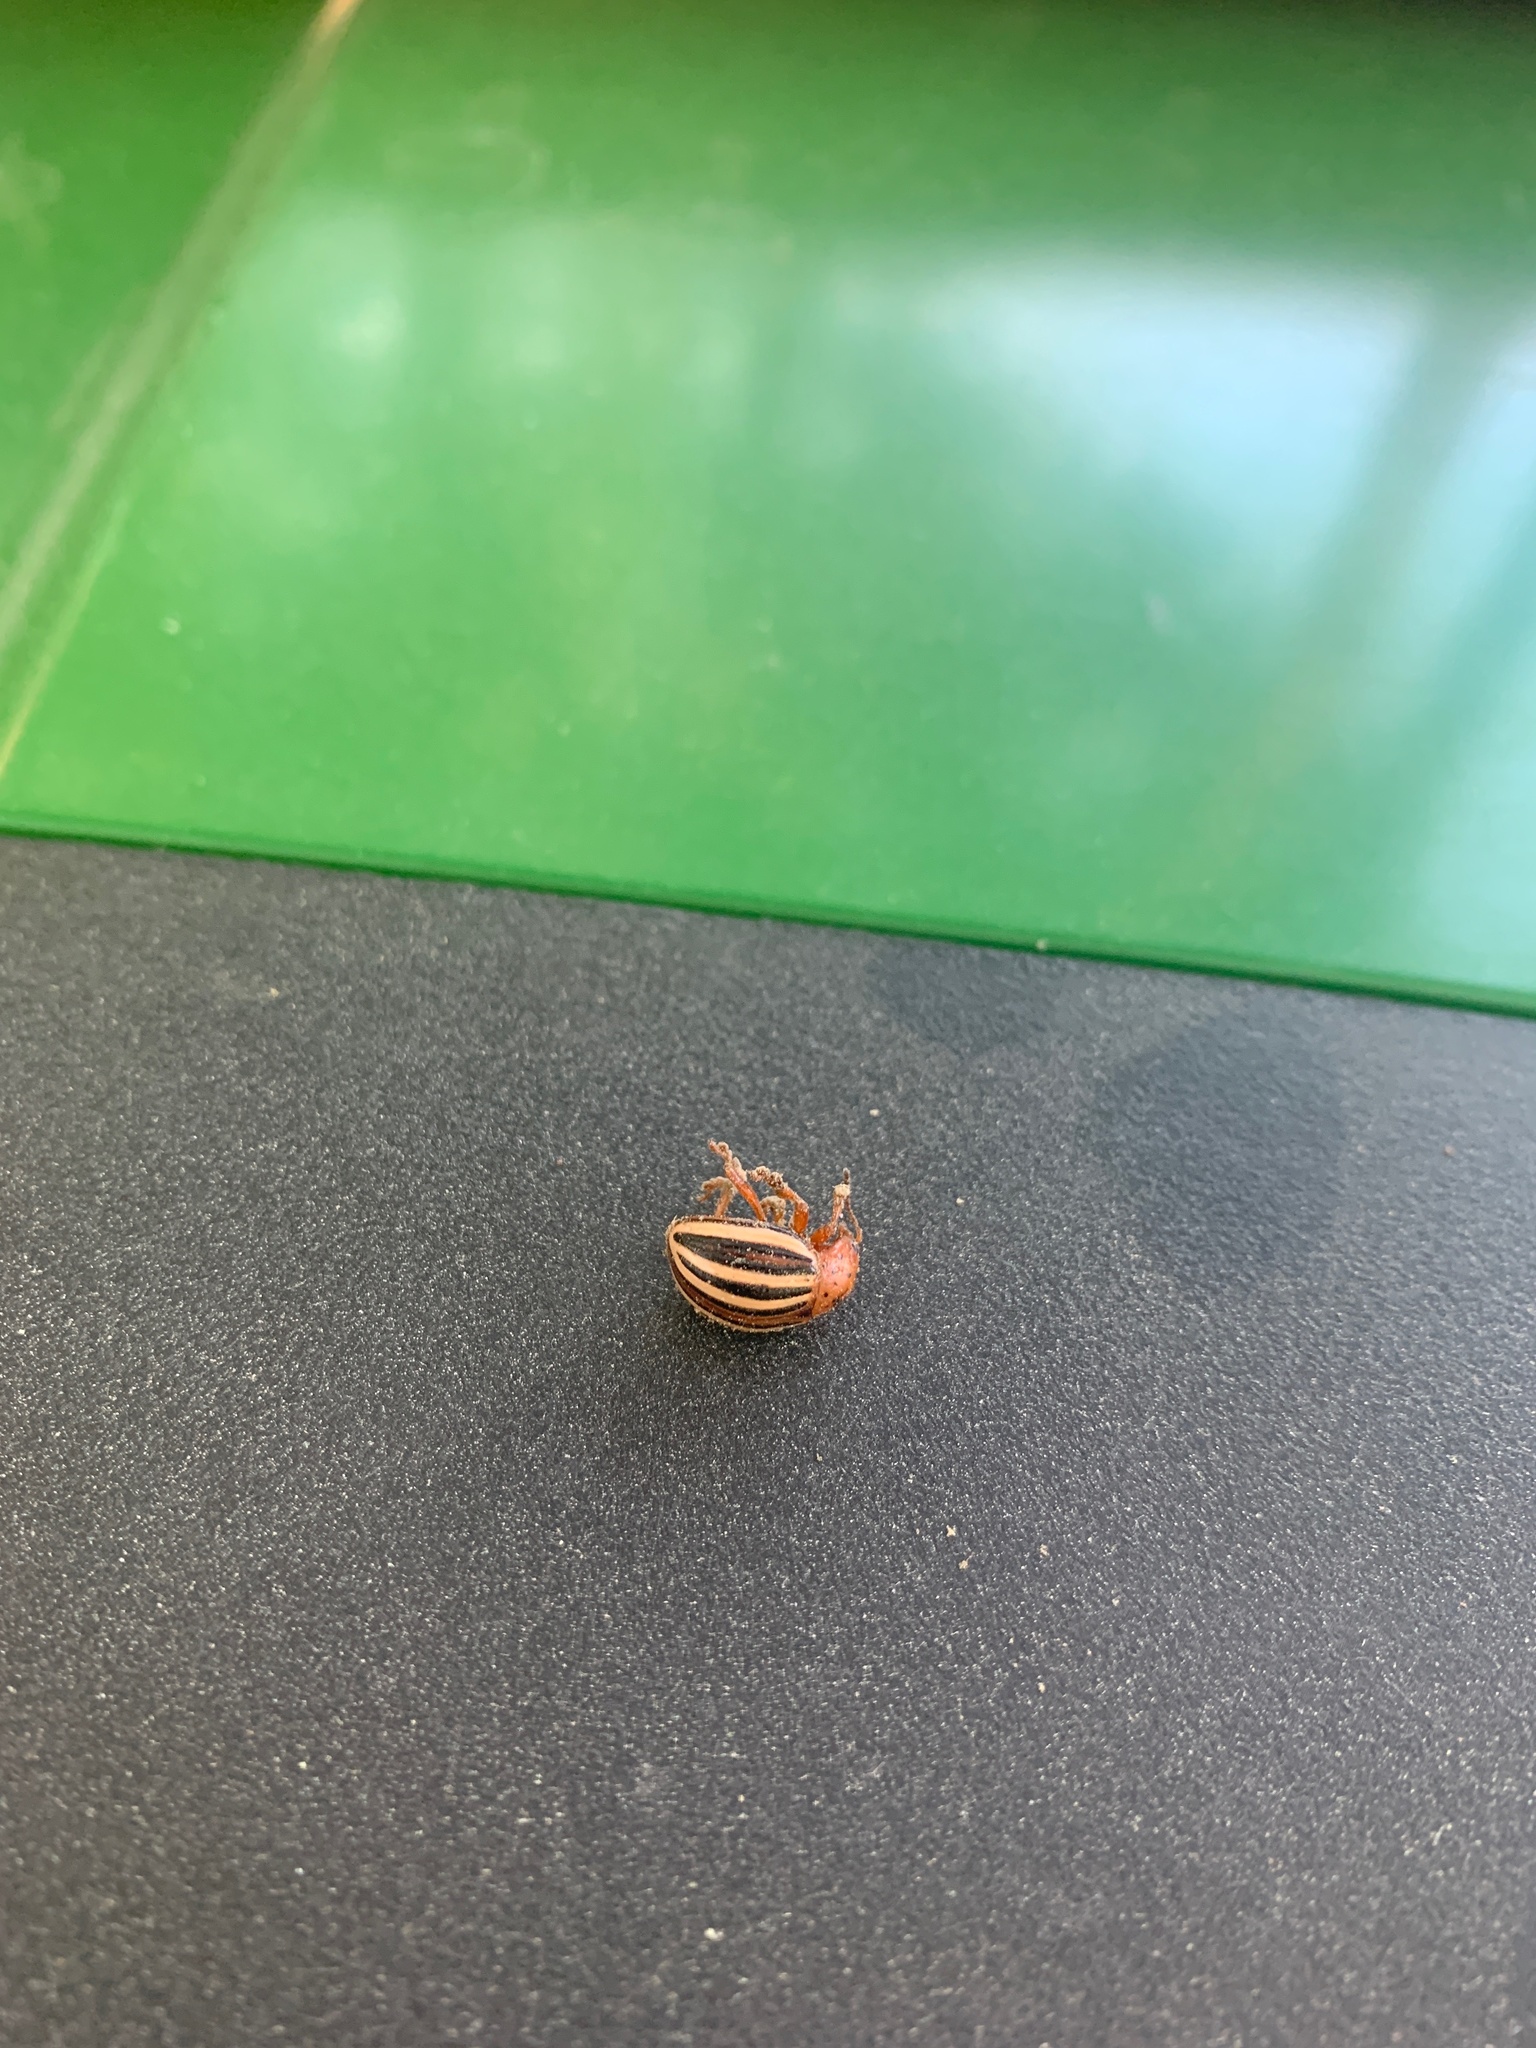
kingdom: Animalia
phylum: Arthropoda
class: Insecta
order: Coleoptera
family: Chrysomelidae
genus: Leptinotarsa
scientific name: Leptinotarsa juncta
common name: False potato beetle
